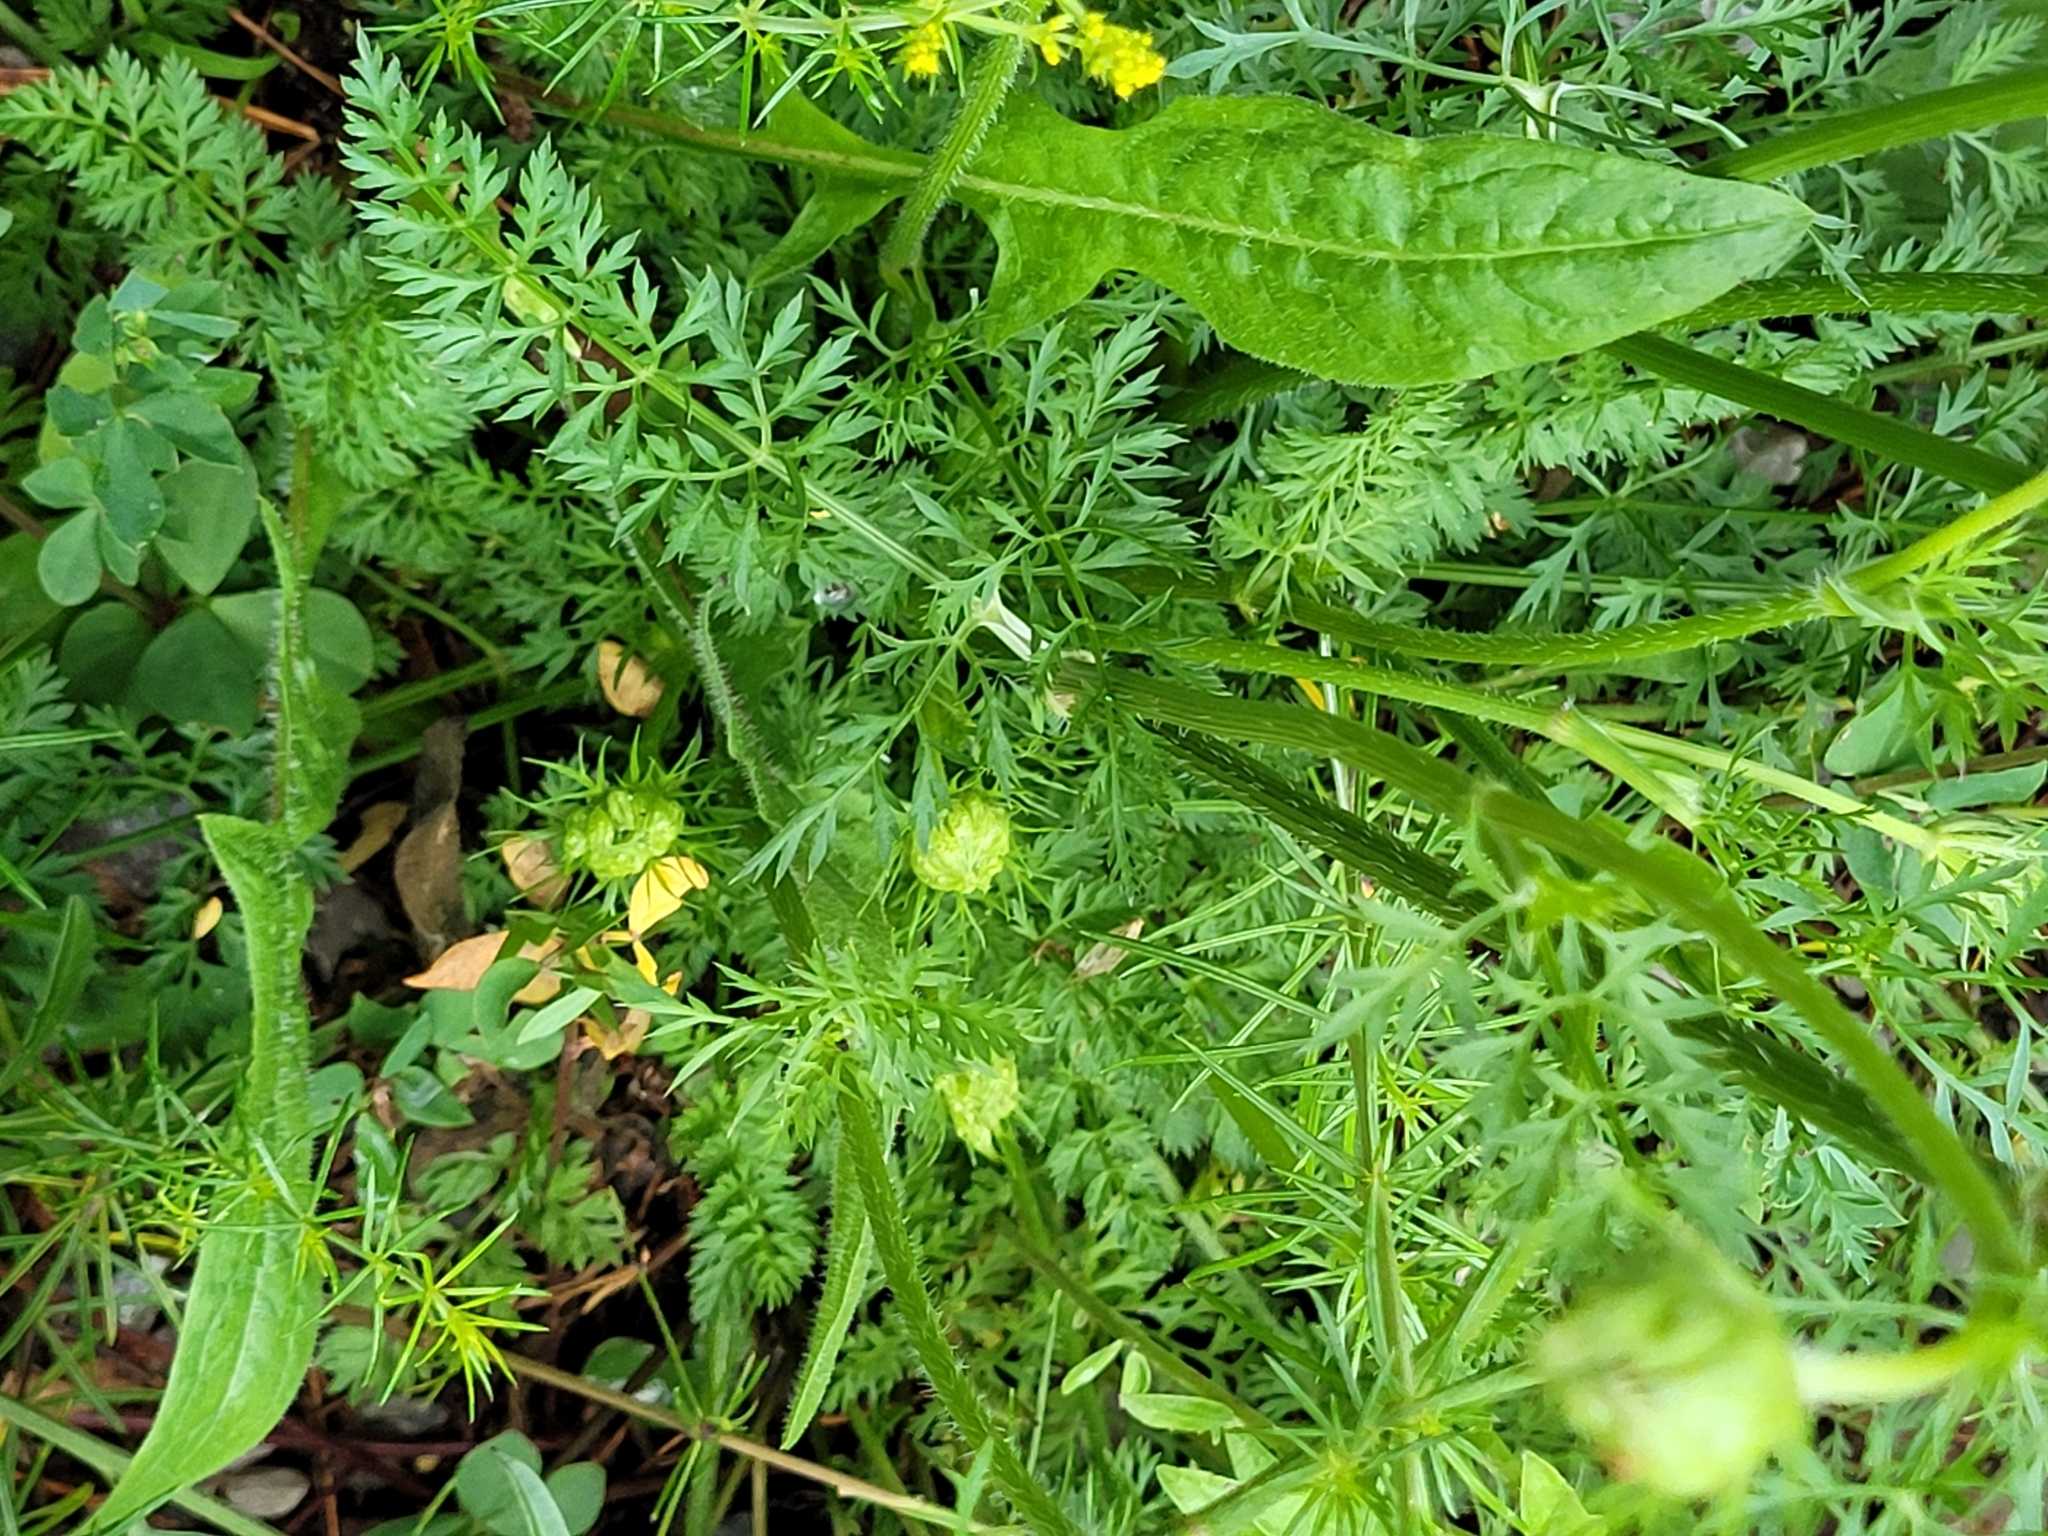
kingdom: Plantae
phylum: Tracheophyta
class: Magnoliopsida
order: Apiales
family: Apiaceae
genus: Daucus
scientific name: Daucus carota
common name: Wild carrot
